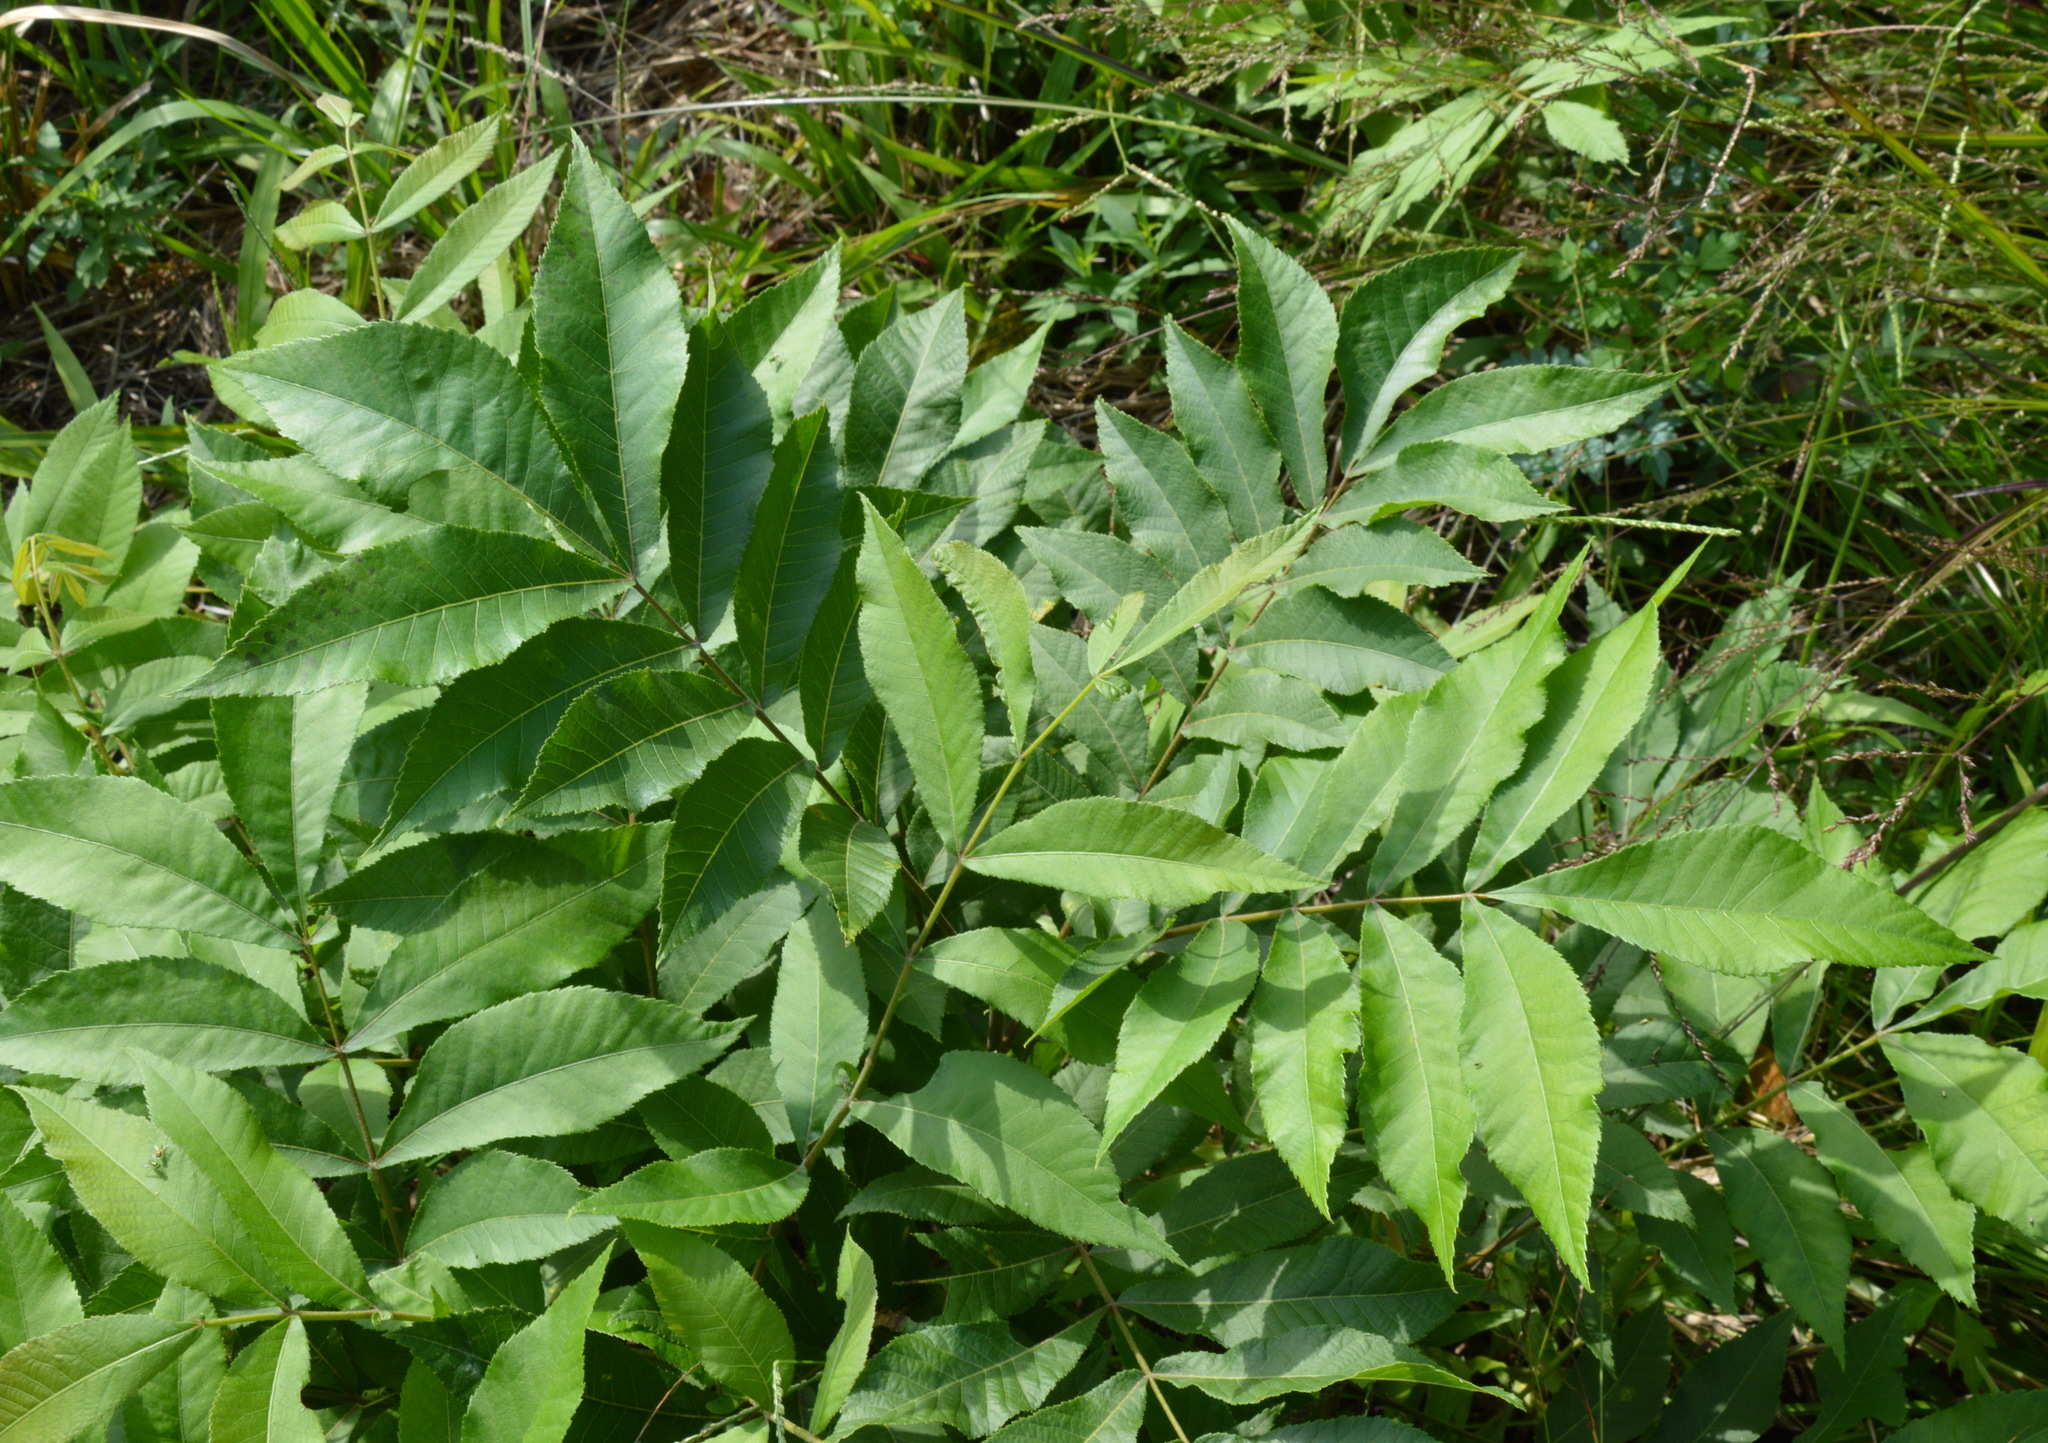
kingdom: Plantae
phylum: Tracheophyta
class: Magnoliopsida
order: Fagales
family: Juglandaceae
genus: Carya
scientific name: Carya illinoinensis
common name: Pecan
